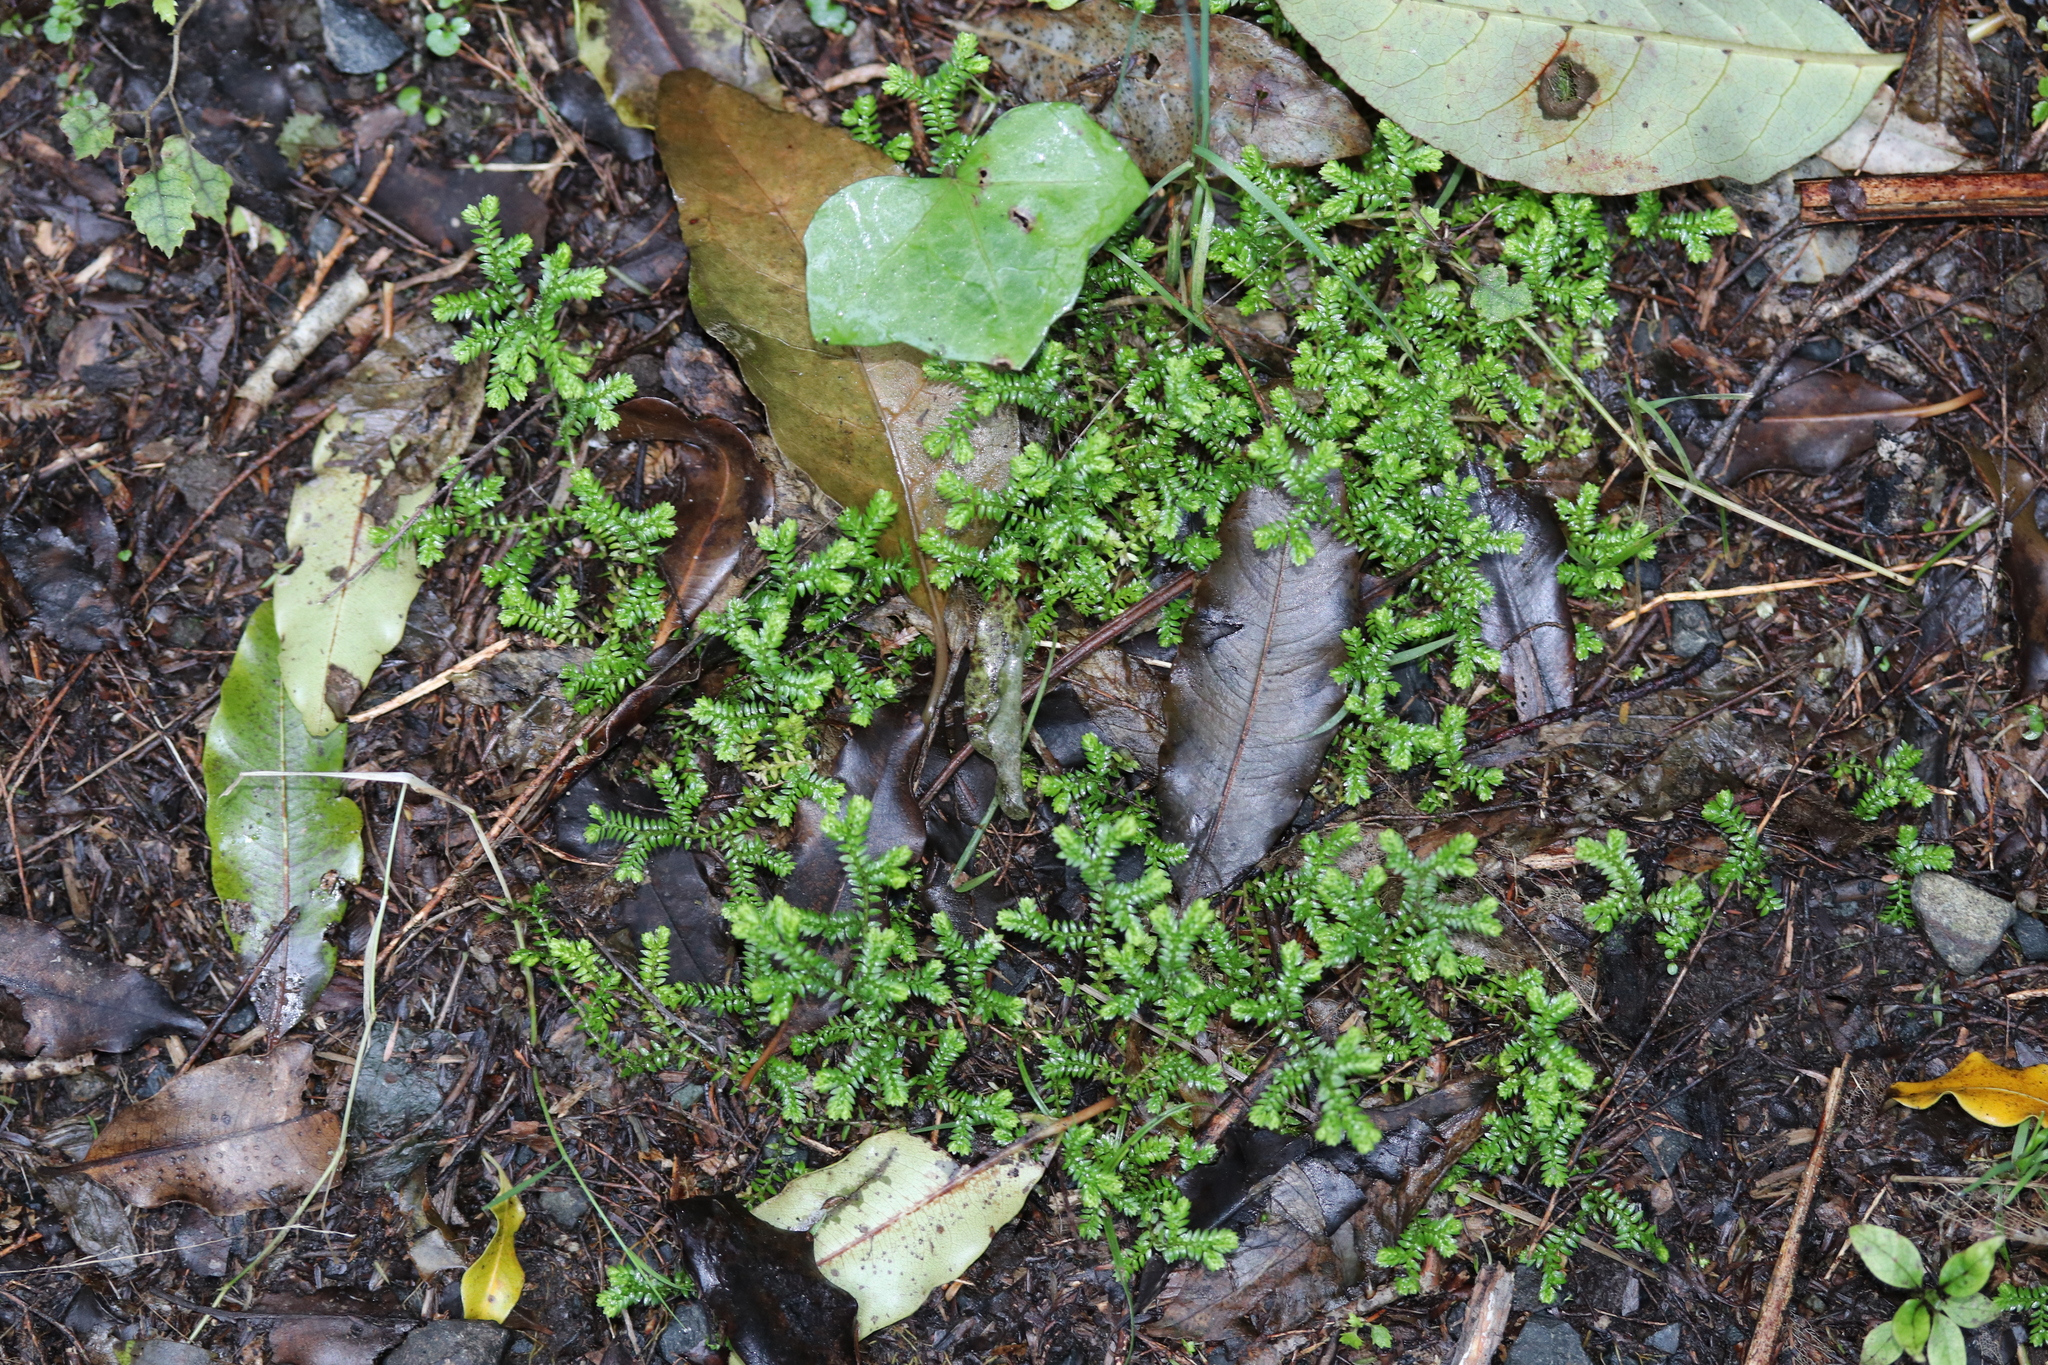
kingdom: Plantae
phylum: Tracheophyta
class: Lycopodiopsida
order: Selaginellales
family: Selaginellaceae
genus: Selaginella
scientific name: Selaginella kraussiana
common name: Krauss' spikemoss
